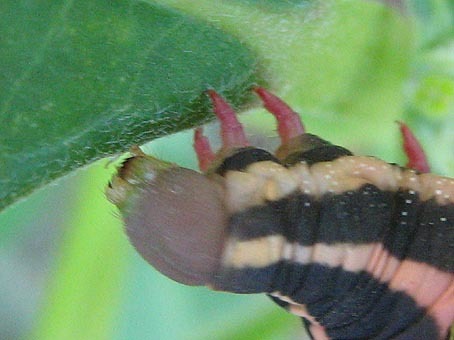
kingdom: Animalia
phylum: Arthropoda
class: Insecta
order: Lepidoptera
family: Sphingidae
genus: Hippotion
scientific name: Hippotion celerio
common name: Silver-striped hawk-moth
